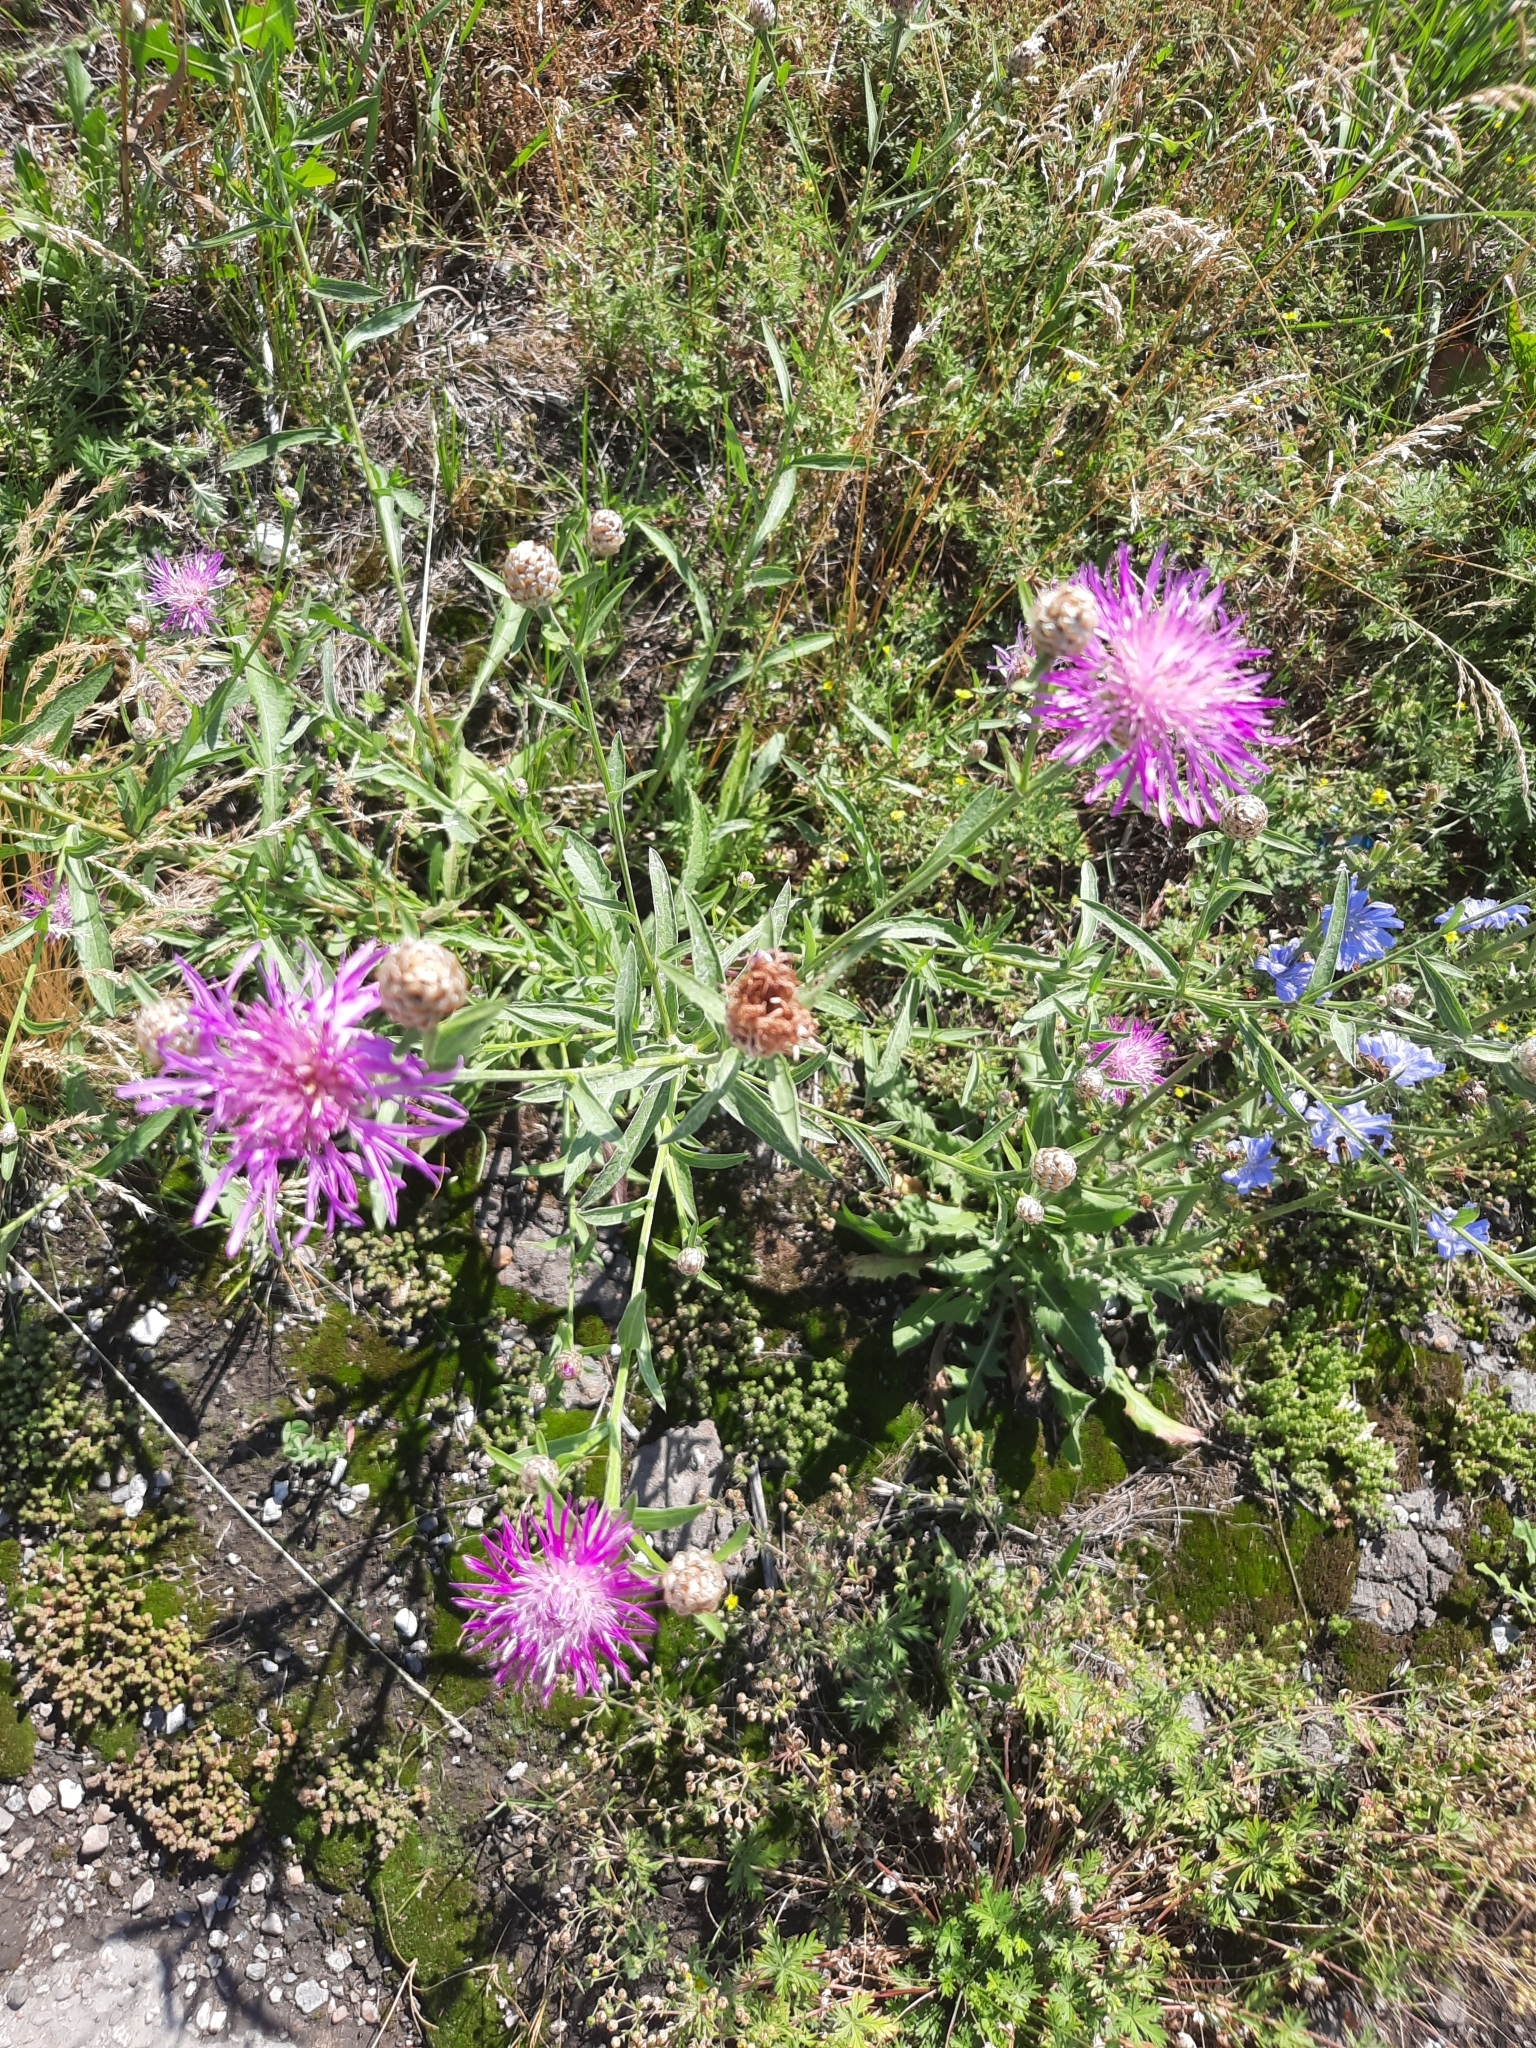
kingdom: Plantae
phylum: Tracheophyta
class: Magnoliopsida
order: Asterales
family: Asteraceae
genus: Centaurea
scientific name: Centaurea jacea
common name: Brown knapweed
